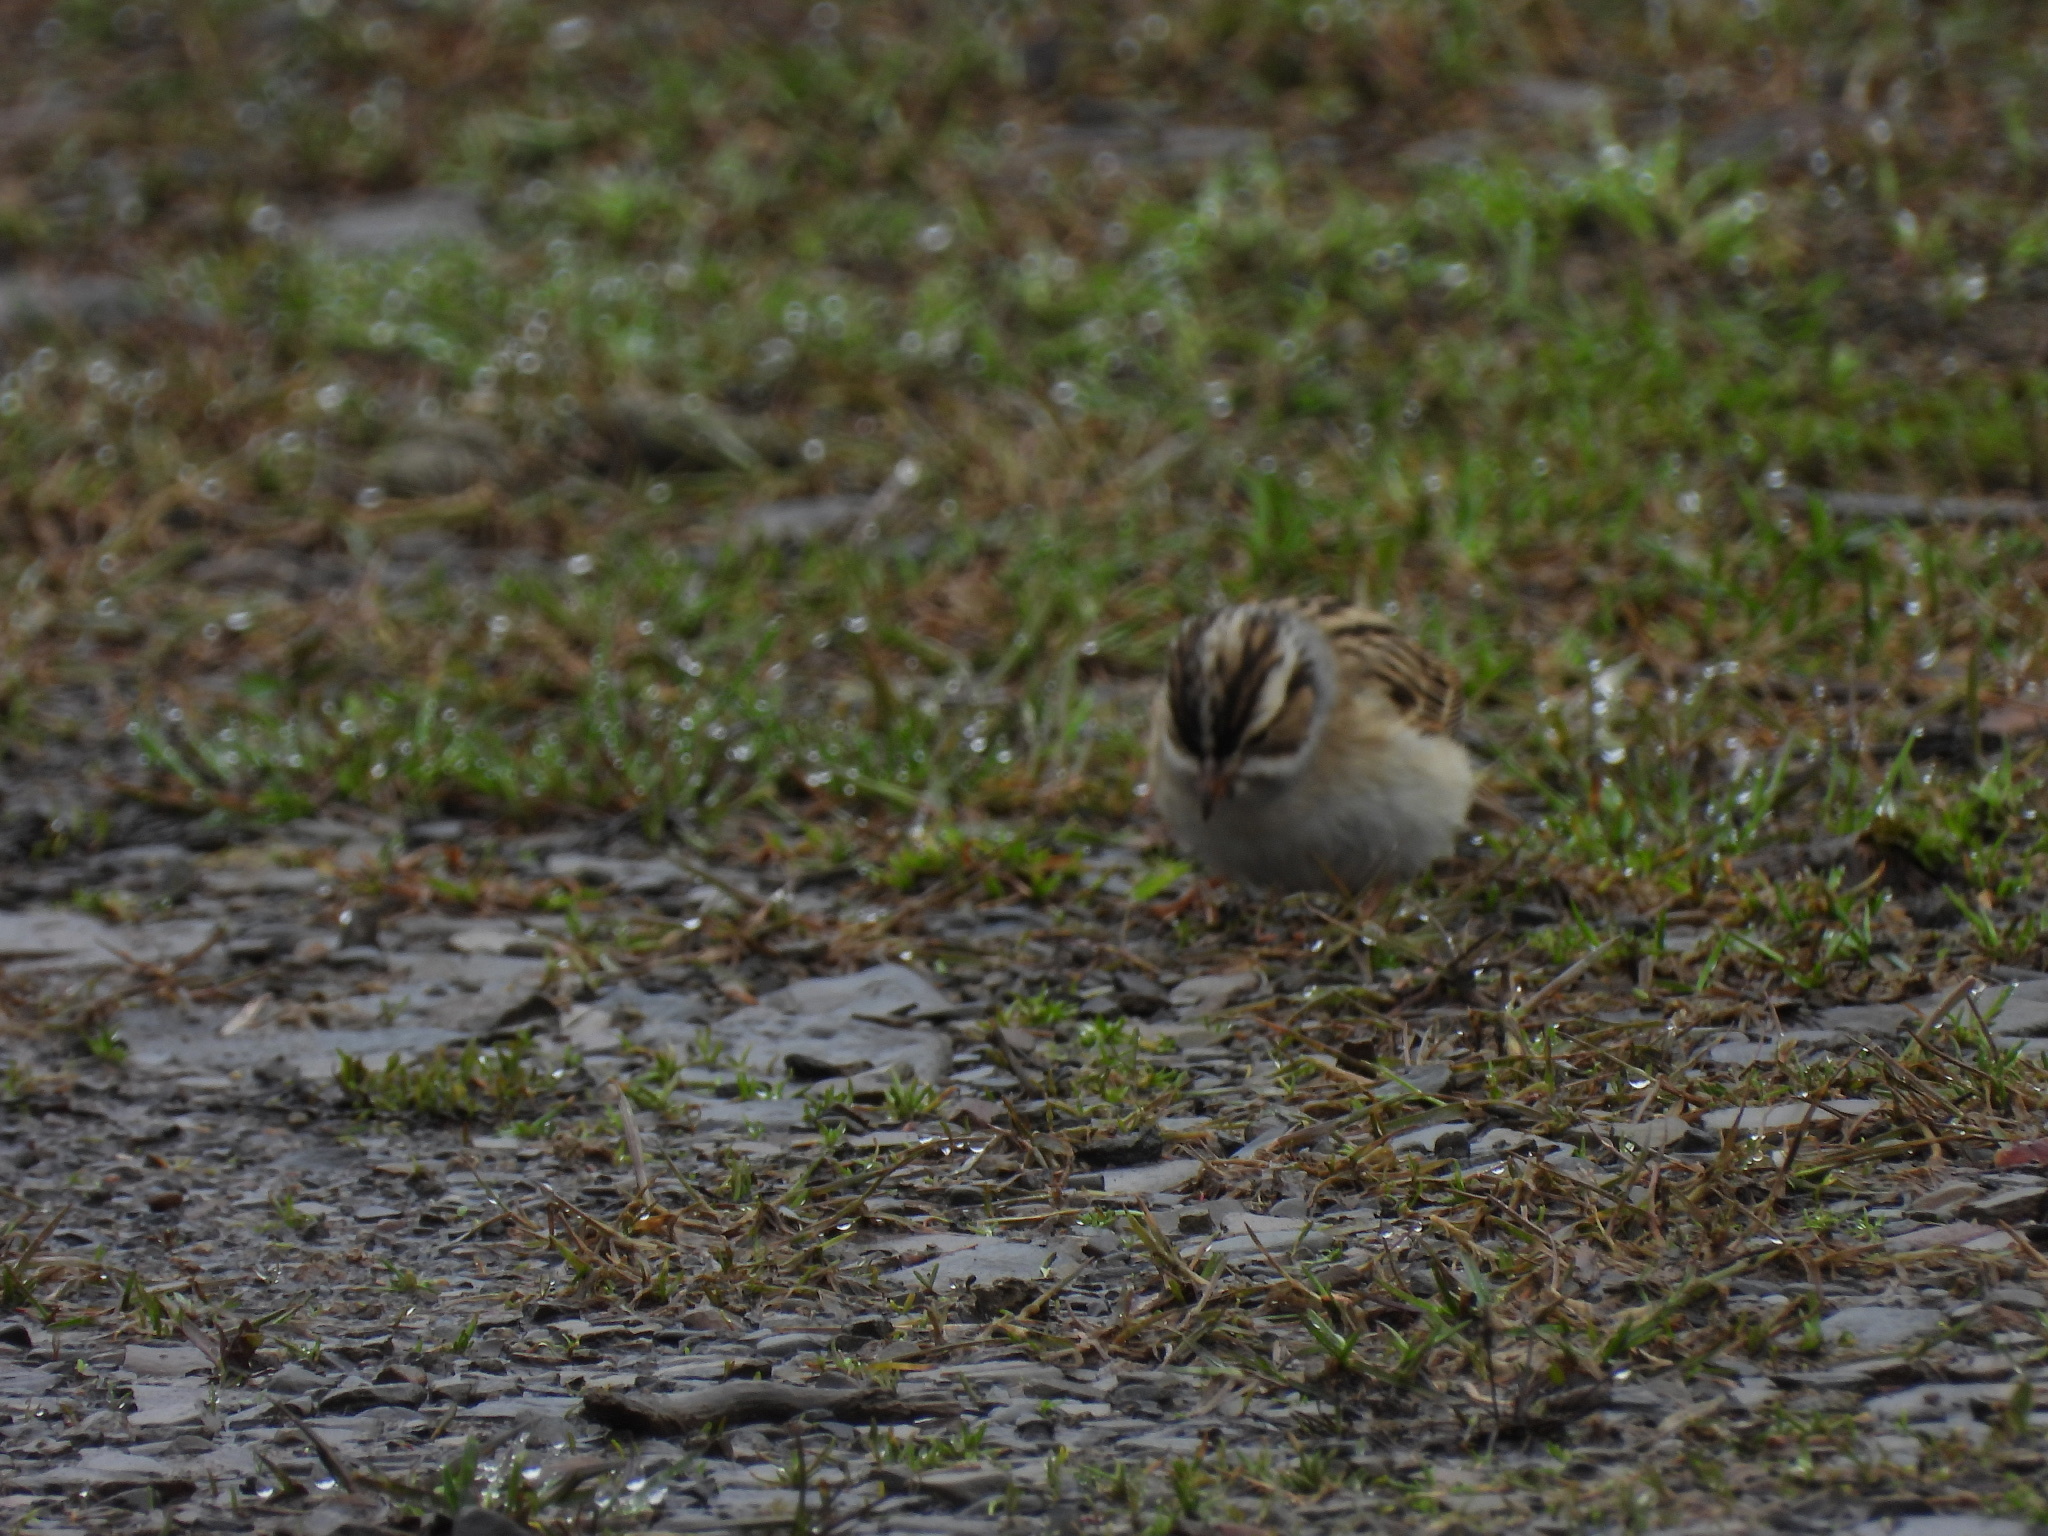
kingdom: Animalia
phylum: Chordata
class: Aves
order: Passeriformes
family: Passerellidae
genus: Spizella
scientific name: Spizella pallida
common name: Clay-colored sparrow
